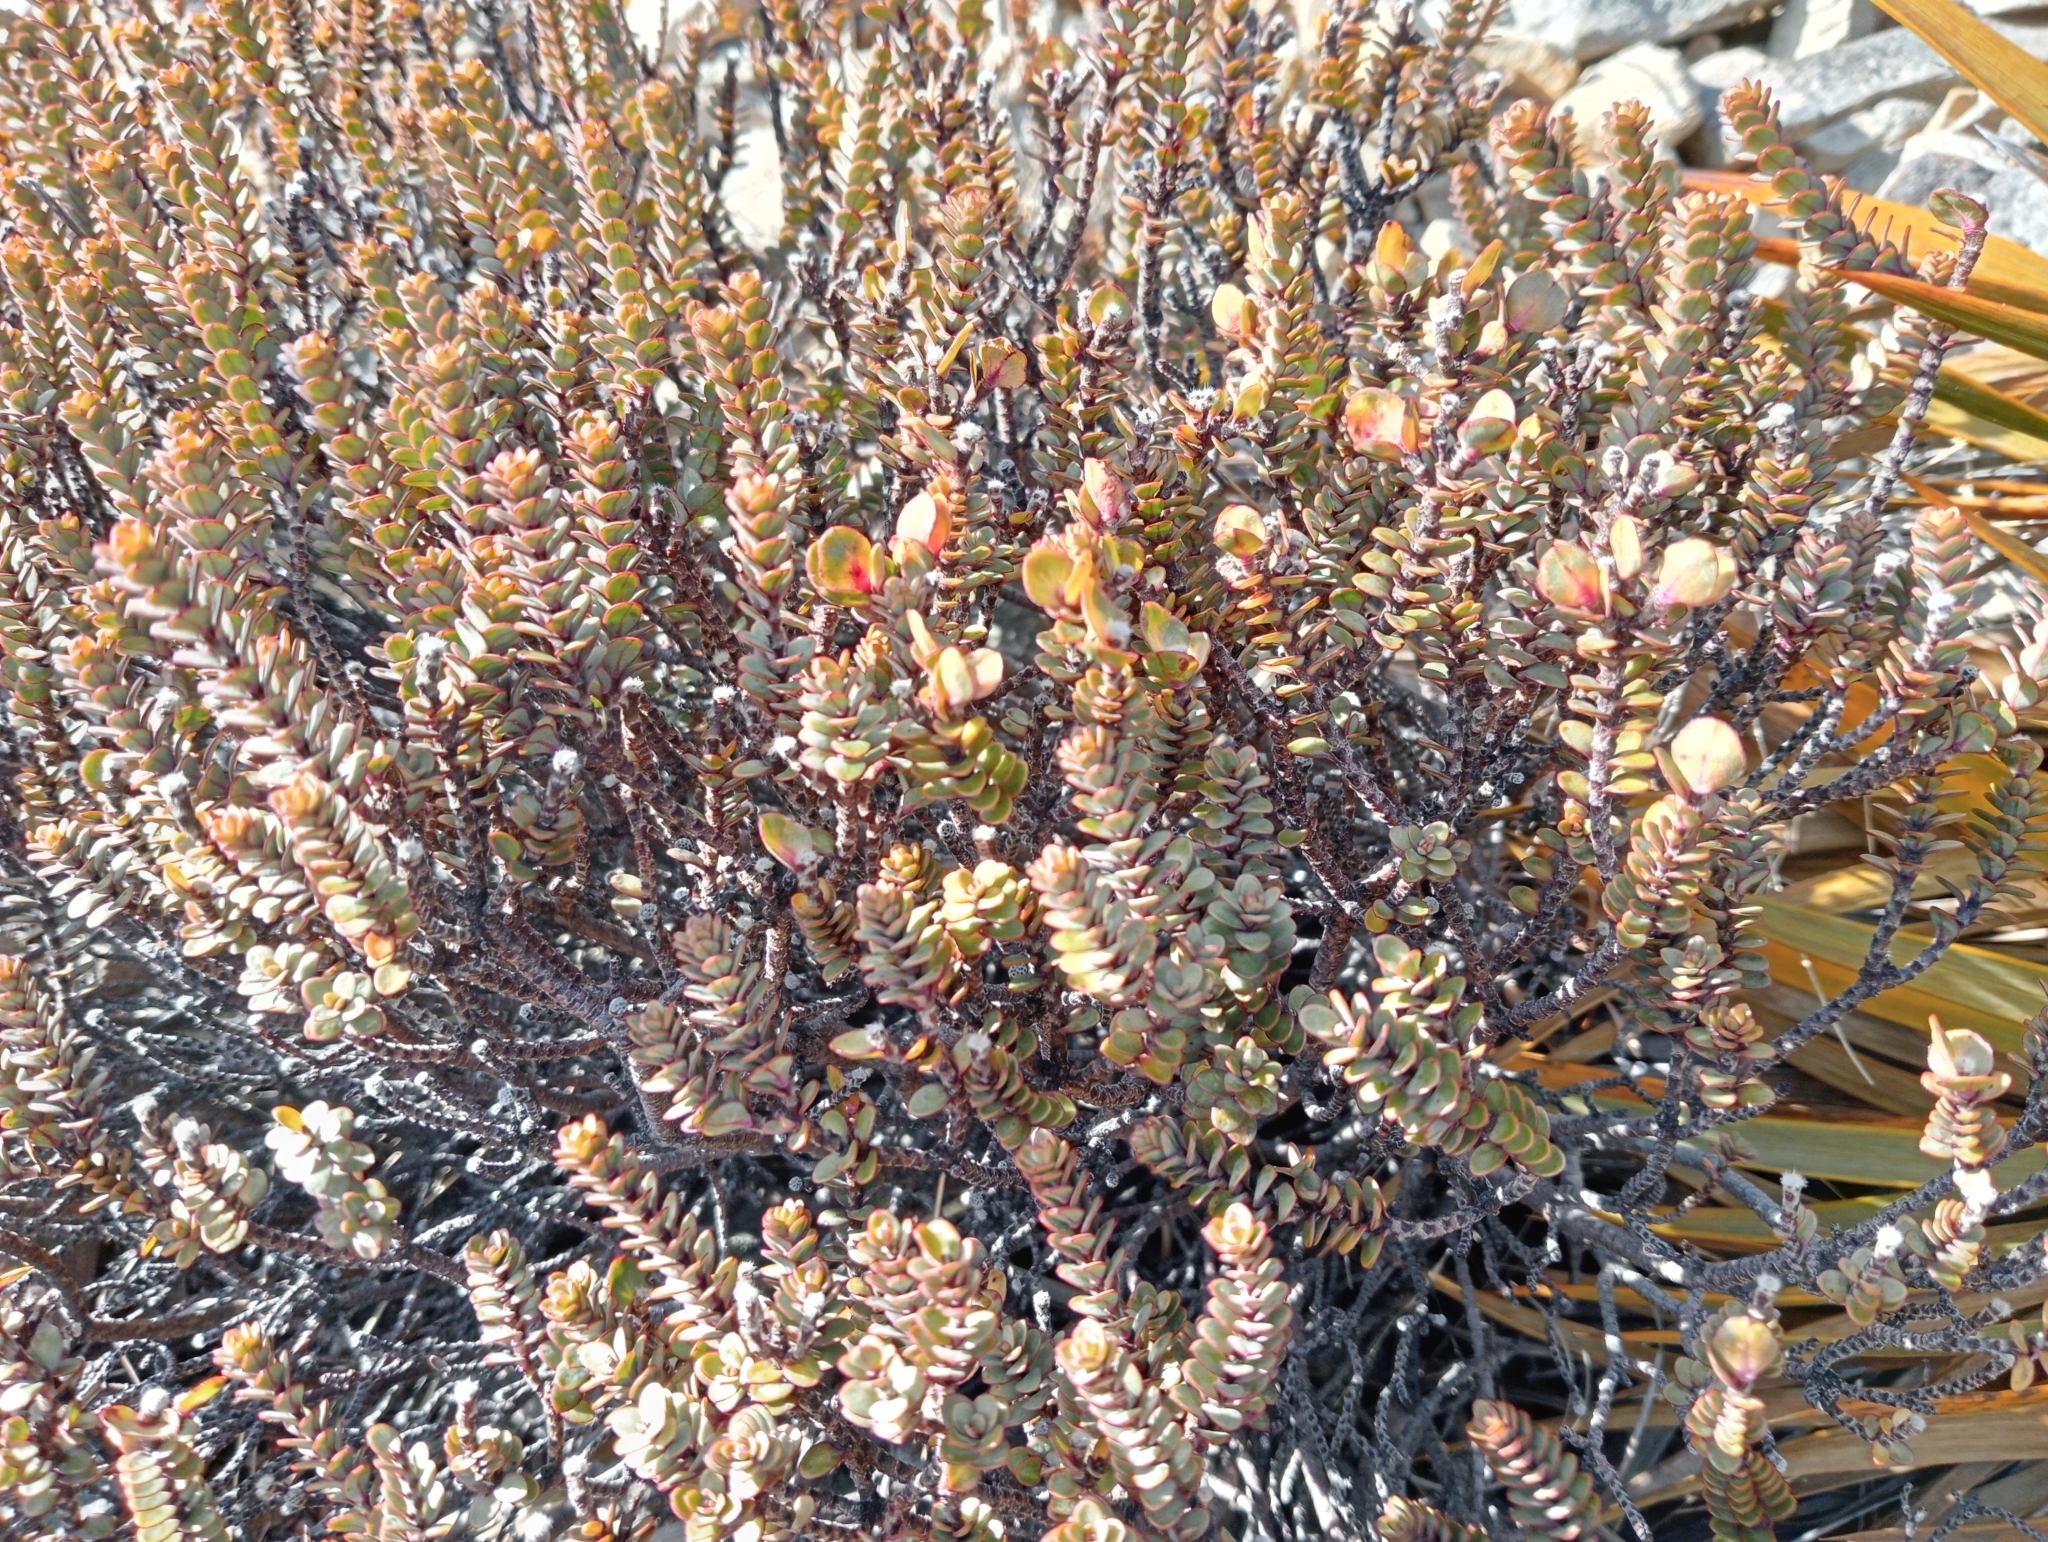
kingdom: Plantae
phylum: Tracheophyta
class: Magnoliopsida
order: Malvales
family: Thymelaeaceae
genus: Pimelea
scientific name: Pimelea traversii
